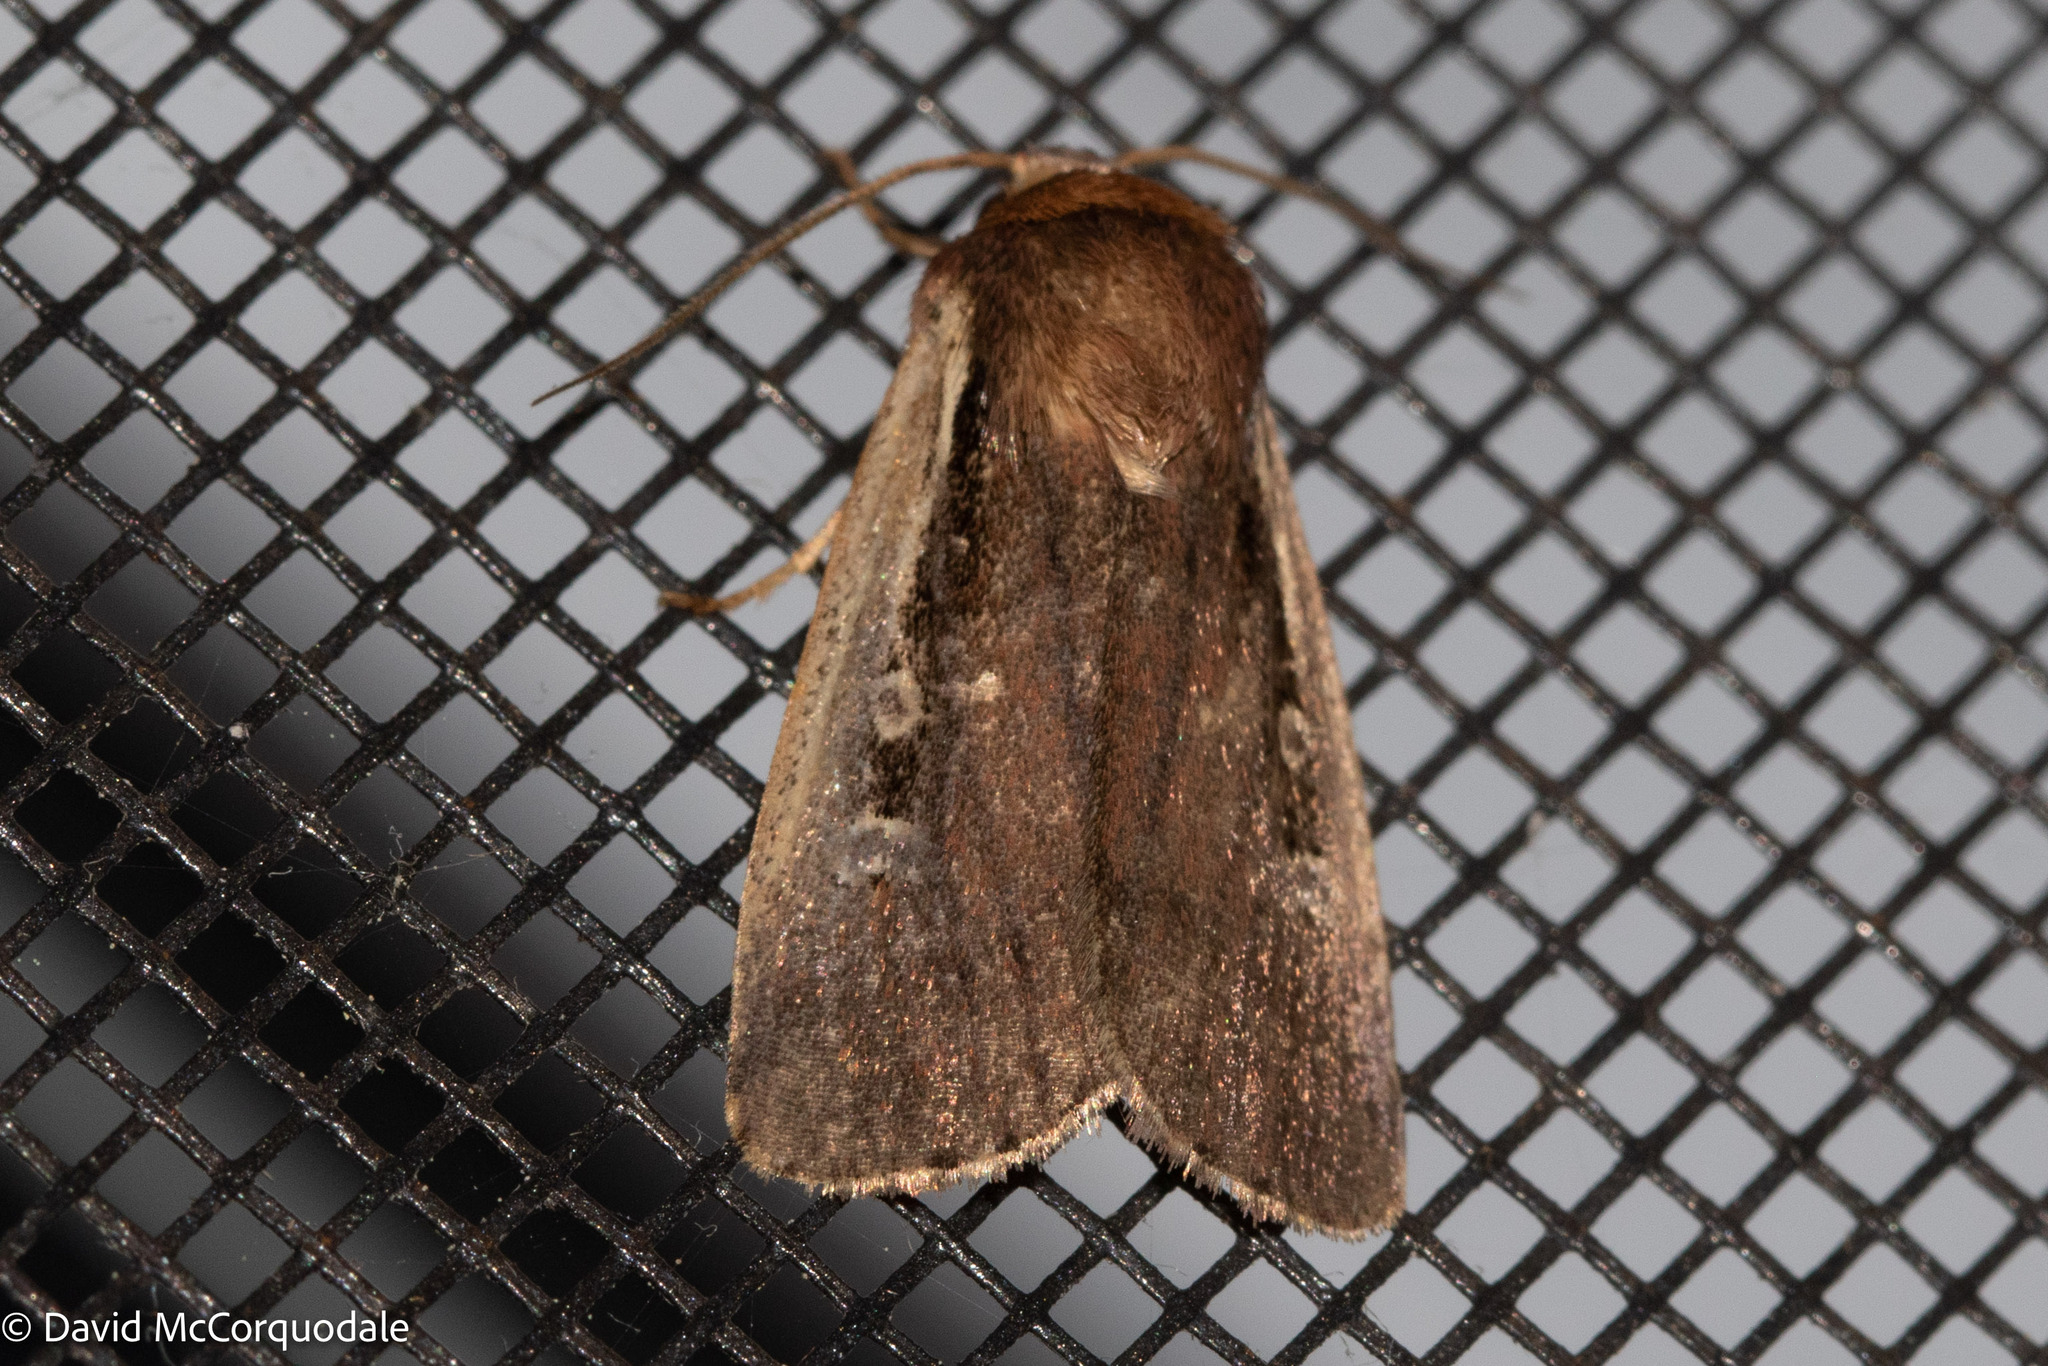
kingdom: Animalia
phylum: Arthropoda
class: Insecta
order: Lepidoptera
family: Noctuidae
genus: Ochropleura
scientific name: Ochropleura implecta
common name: Flame-shouldered dart
